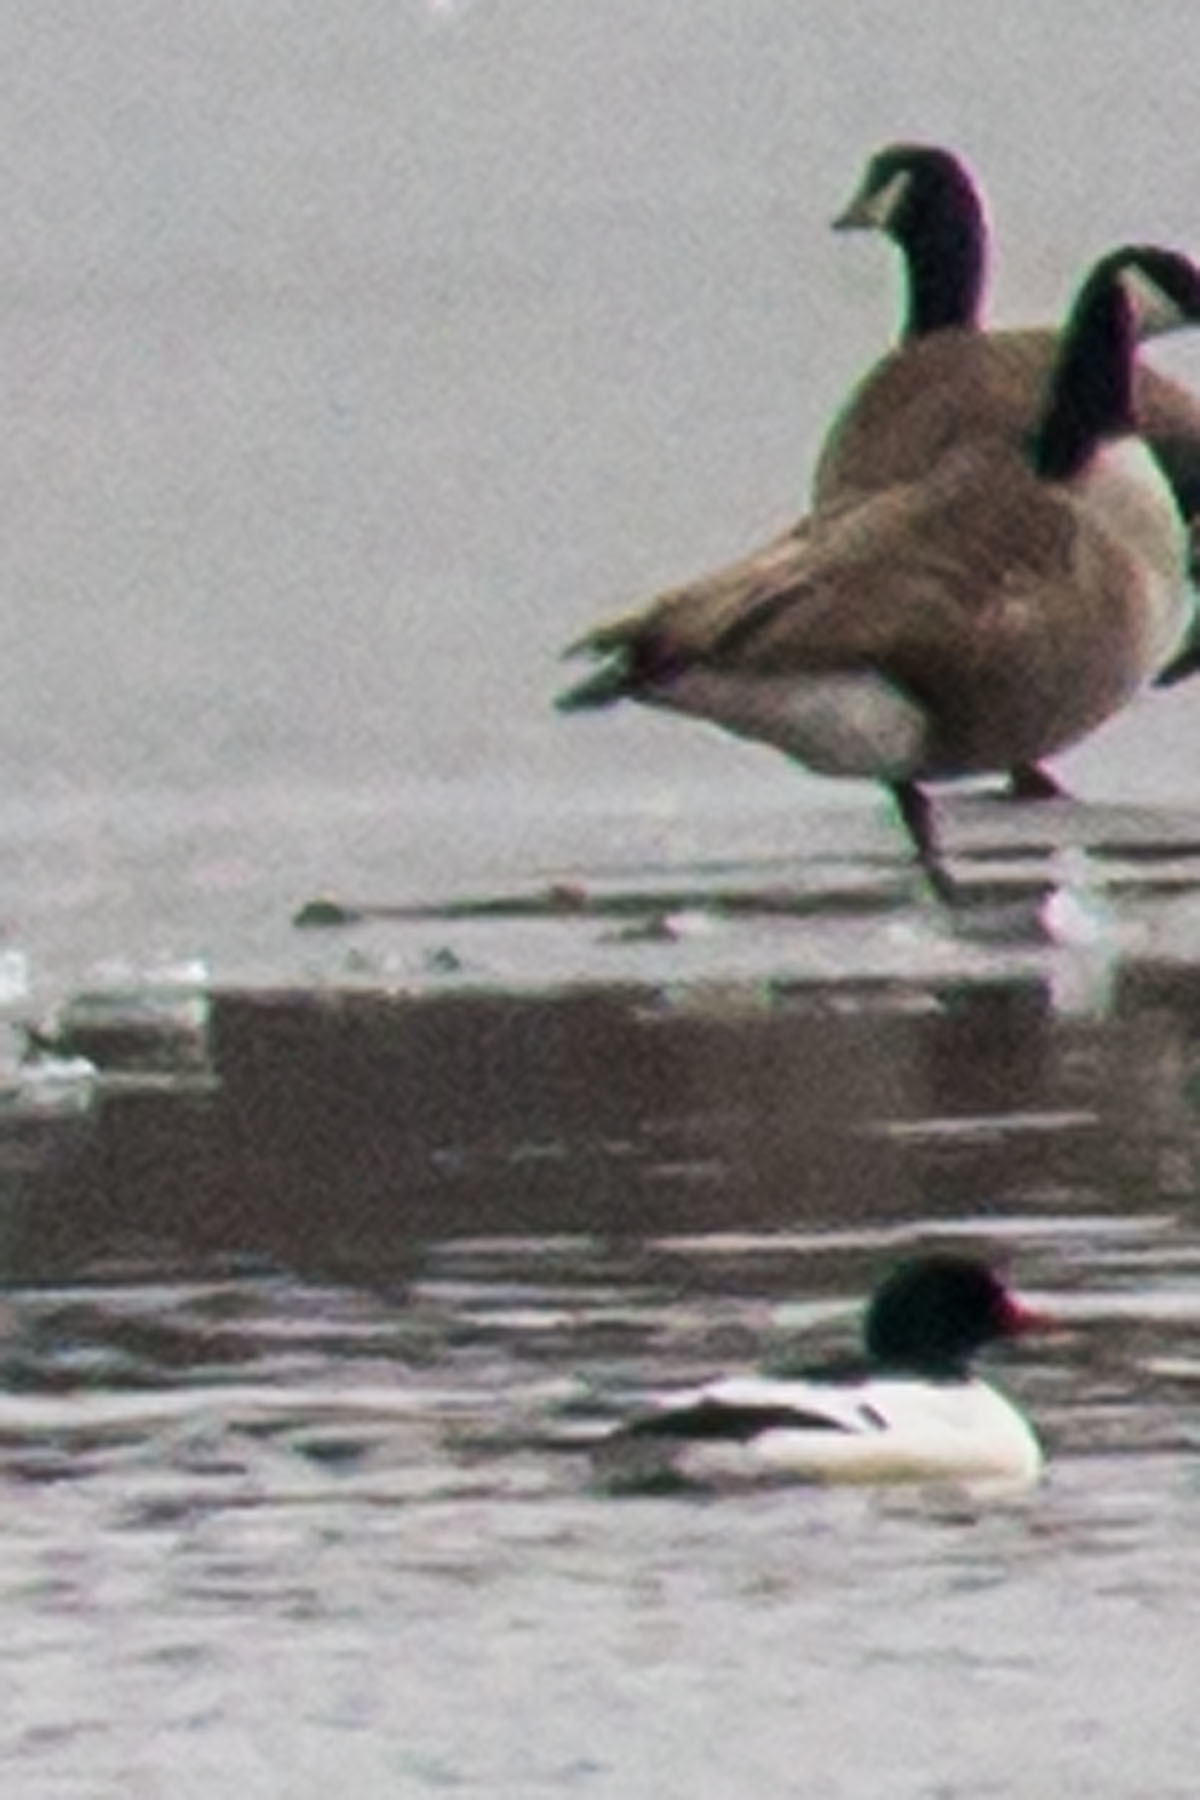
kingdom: Animalia
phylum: Chordata
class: Aves
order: Anseriformes
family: Anatidae
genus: Mergus
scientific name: Mergus merganser
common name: Common merganser
